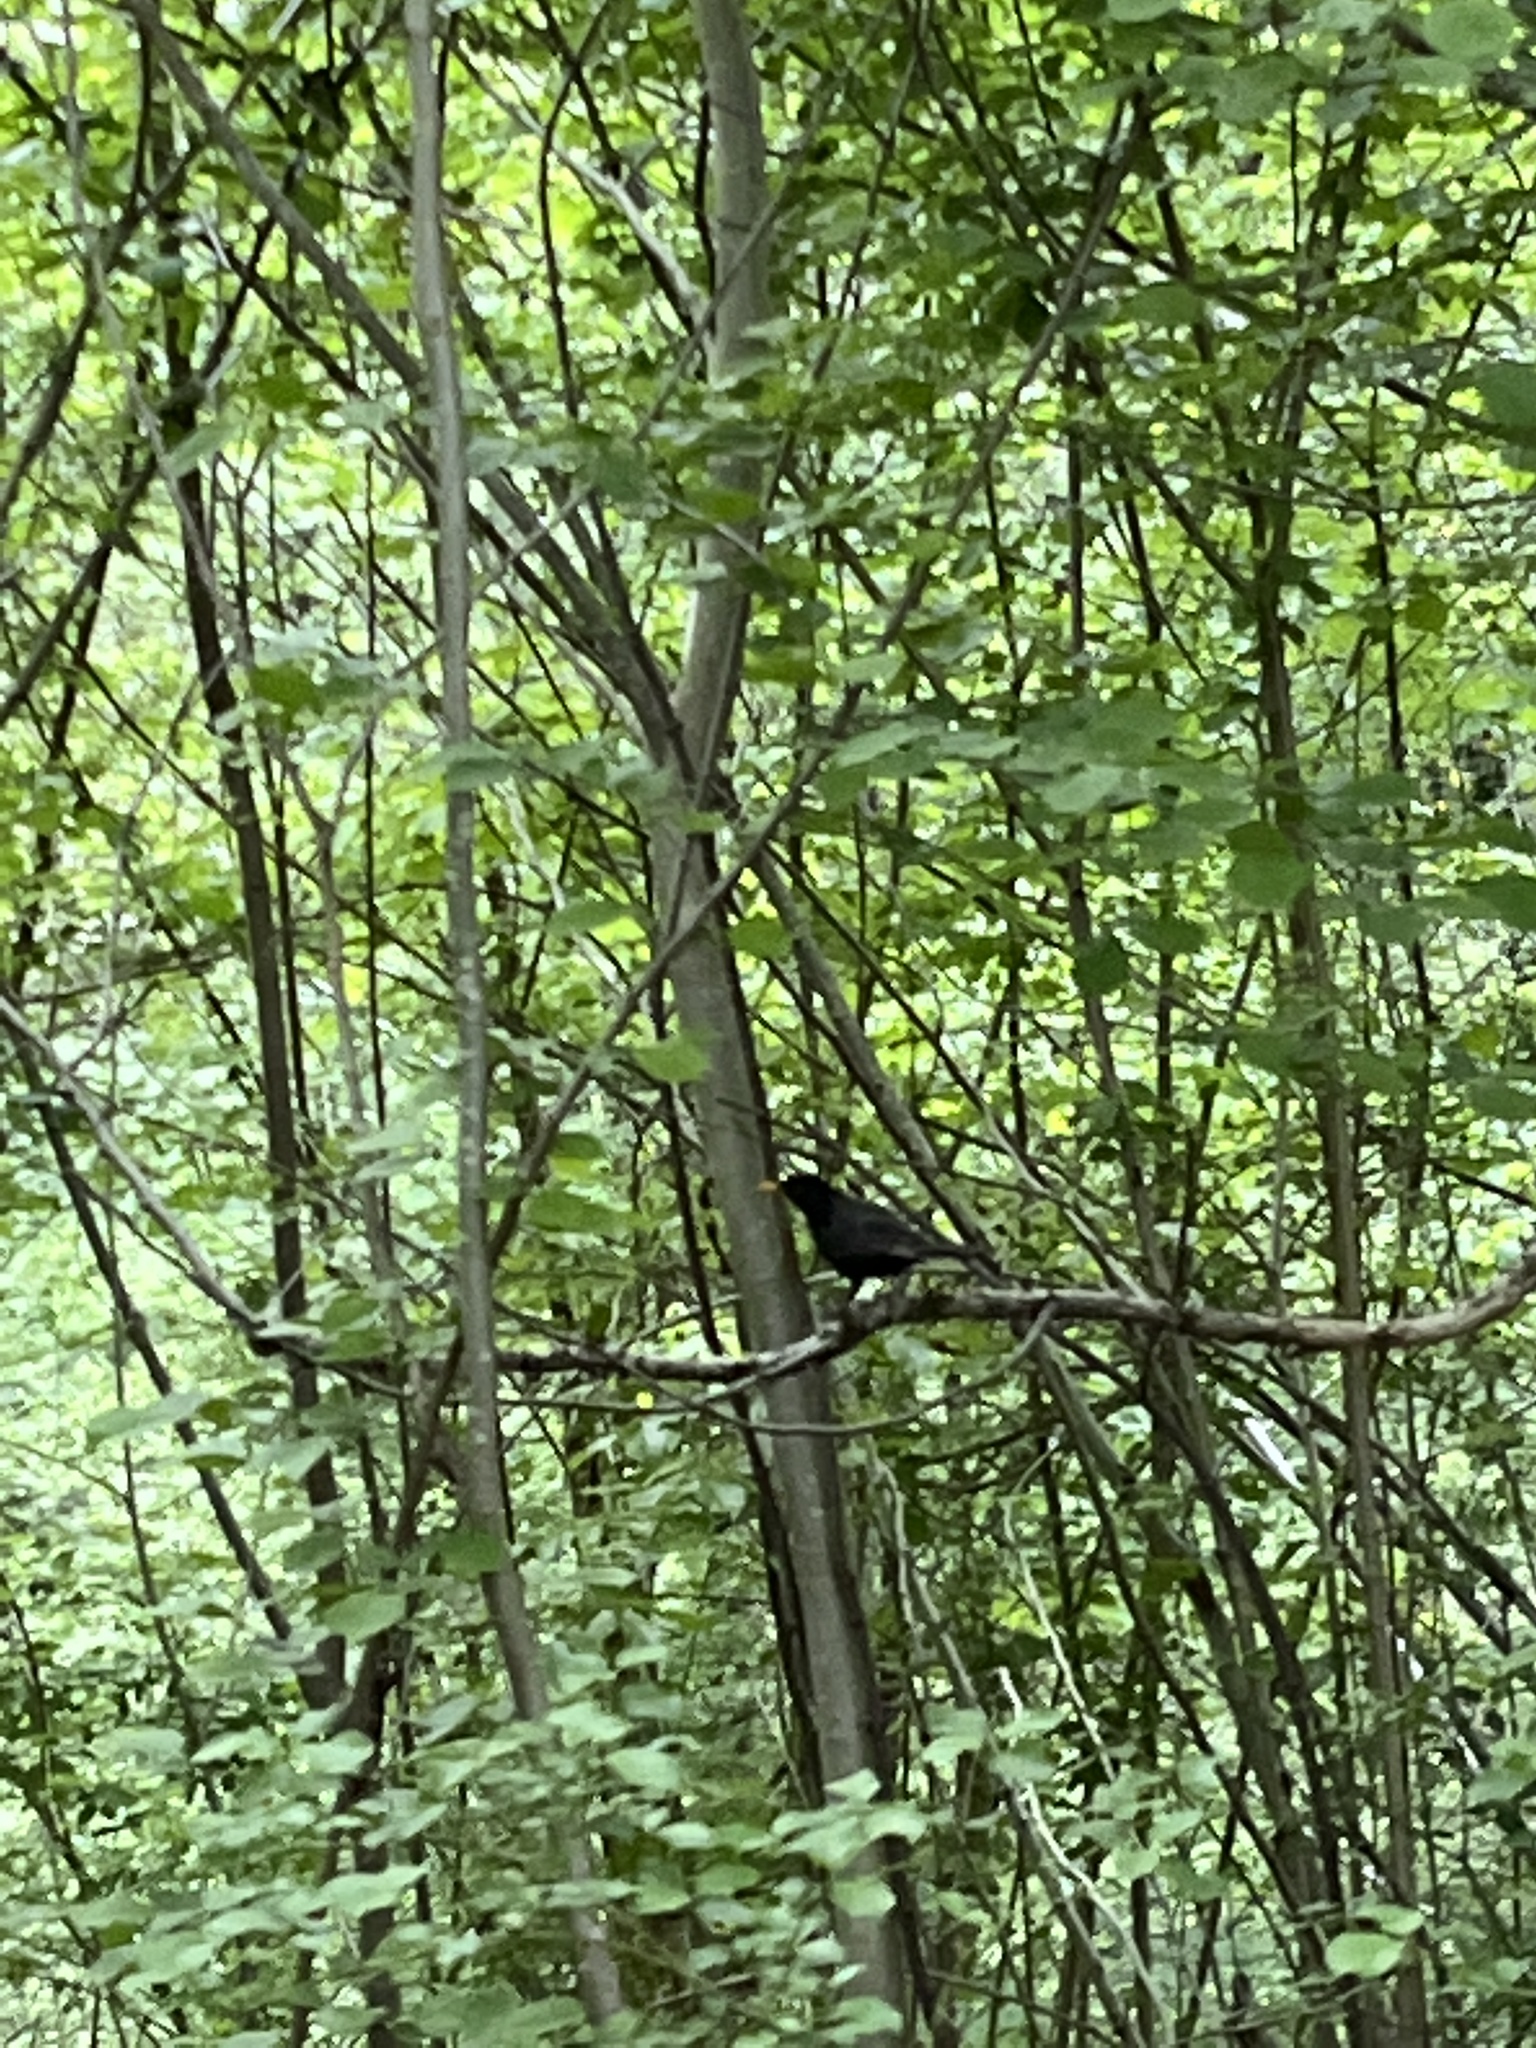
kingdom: Animalia
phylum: Chordata
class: Aves
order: Passeriformes
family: Turdidae
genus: Turdus
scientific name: Turdus merula
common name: Common blackbird
